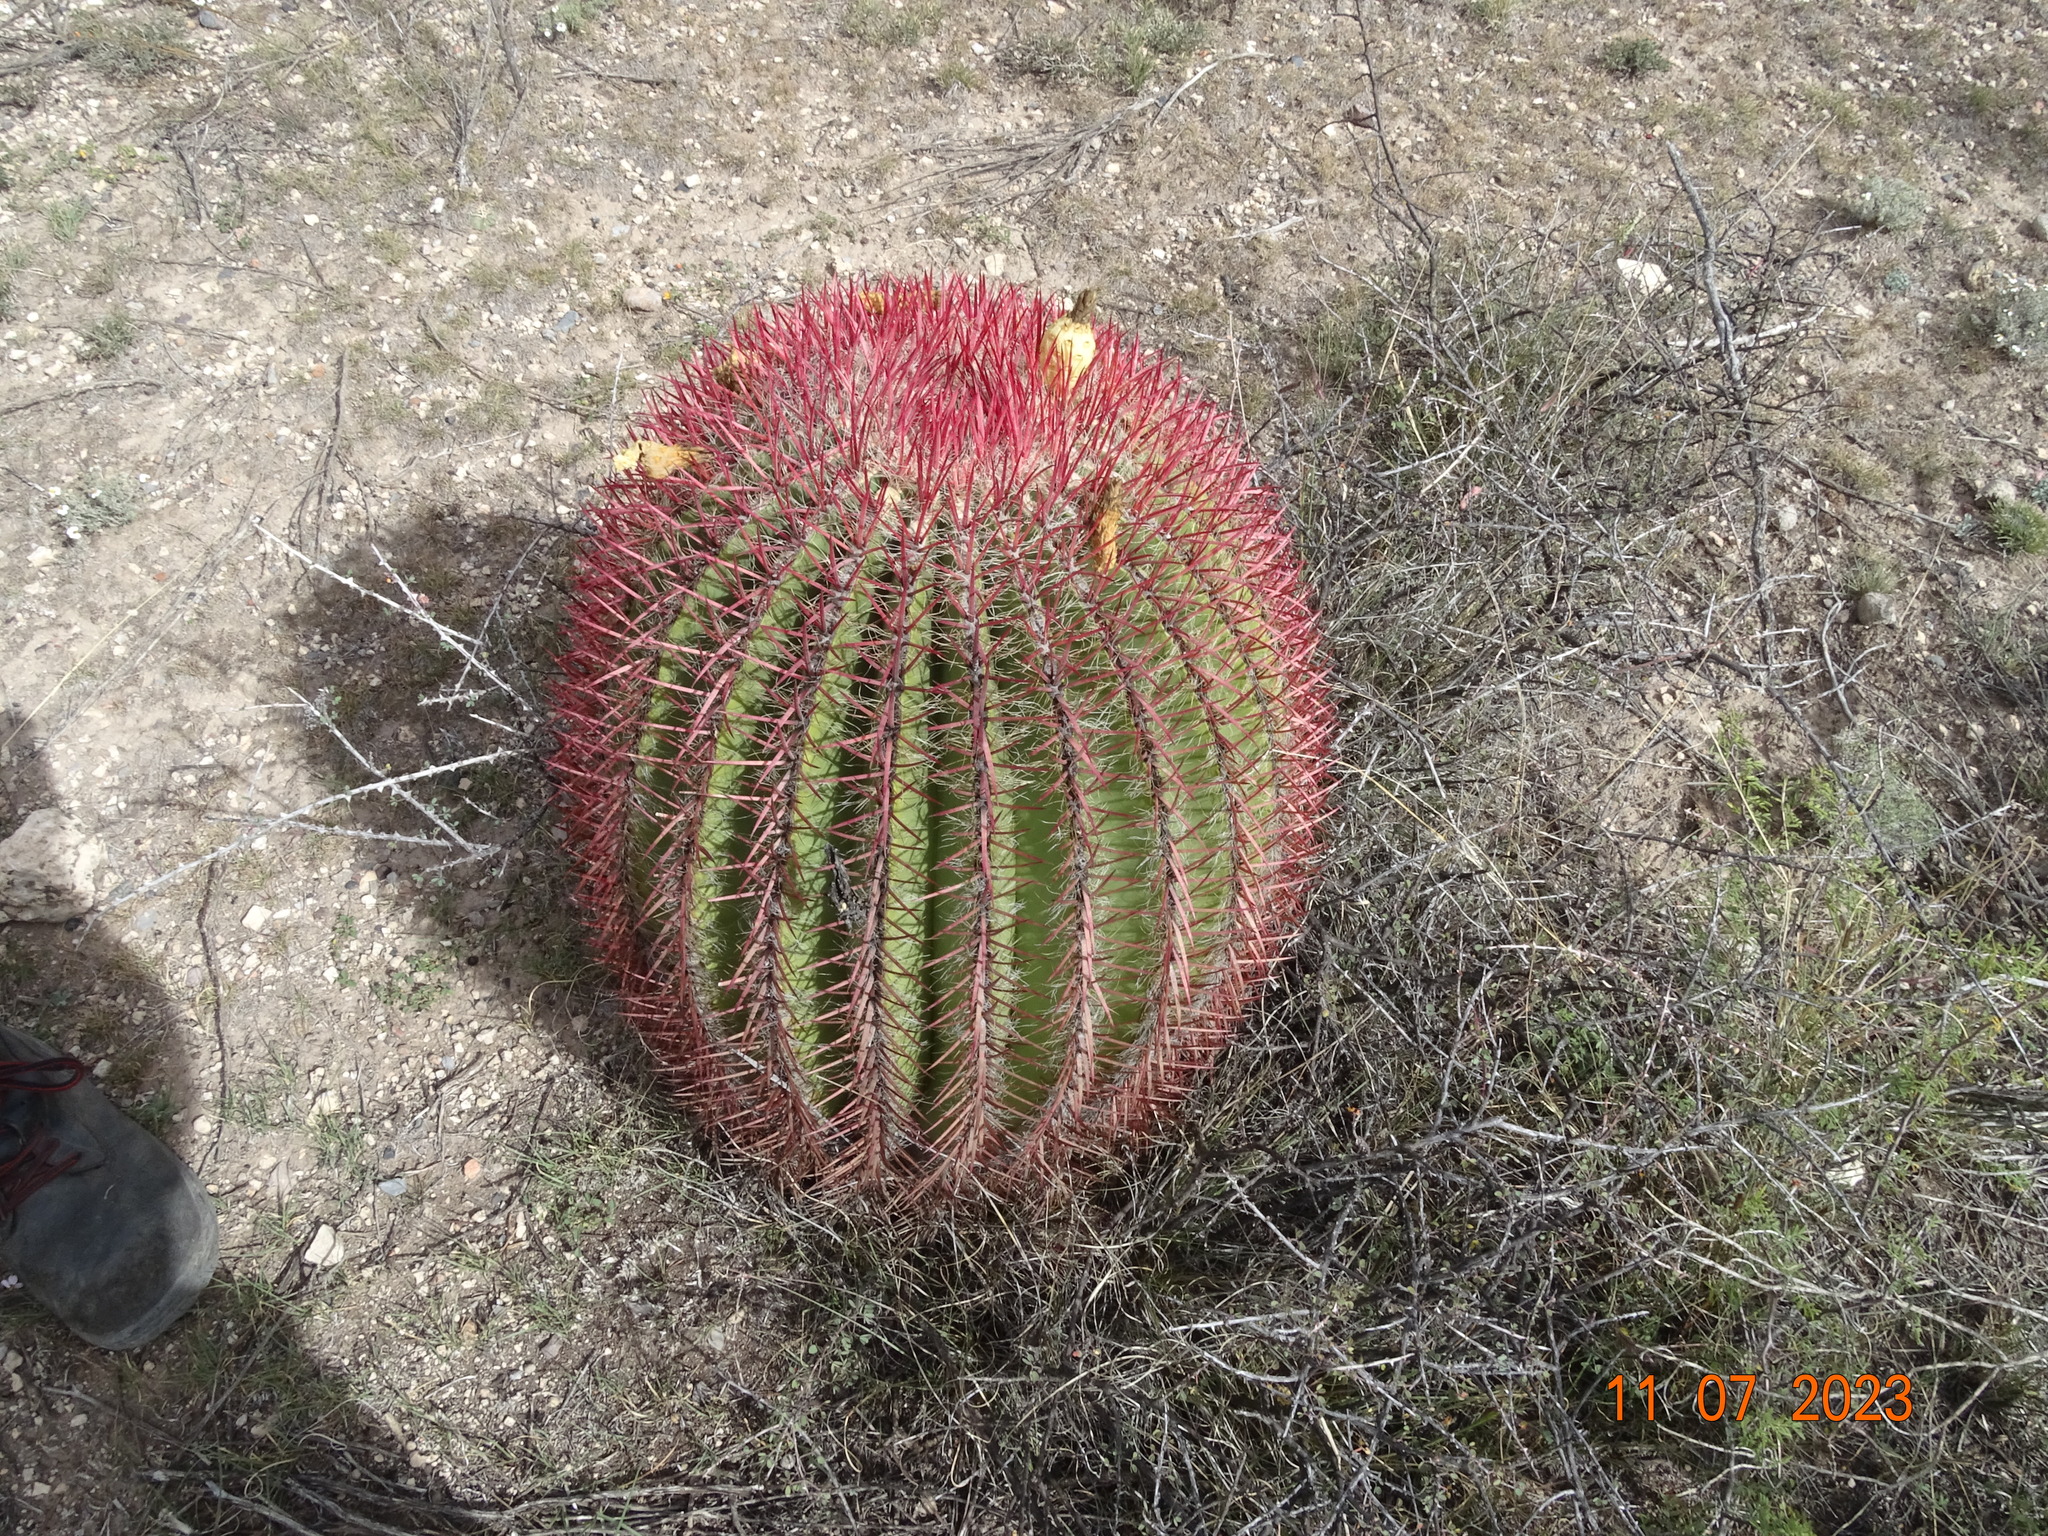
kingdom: Plantae
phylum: Tracheophyta
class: Magnoliopsida
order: Caryophyllales
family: Cactaceae
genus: Ferocactus
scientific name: Ferocactus pilosus
